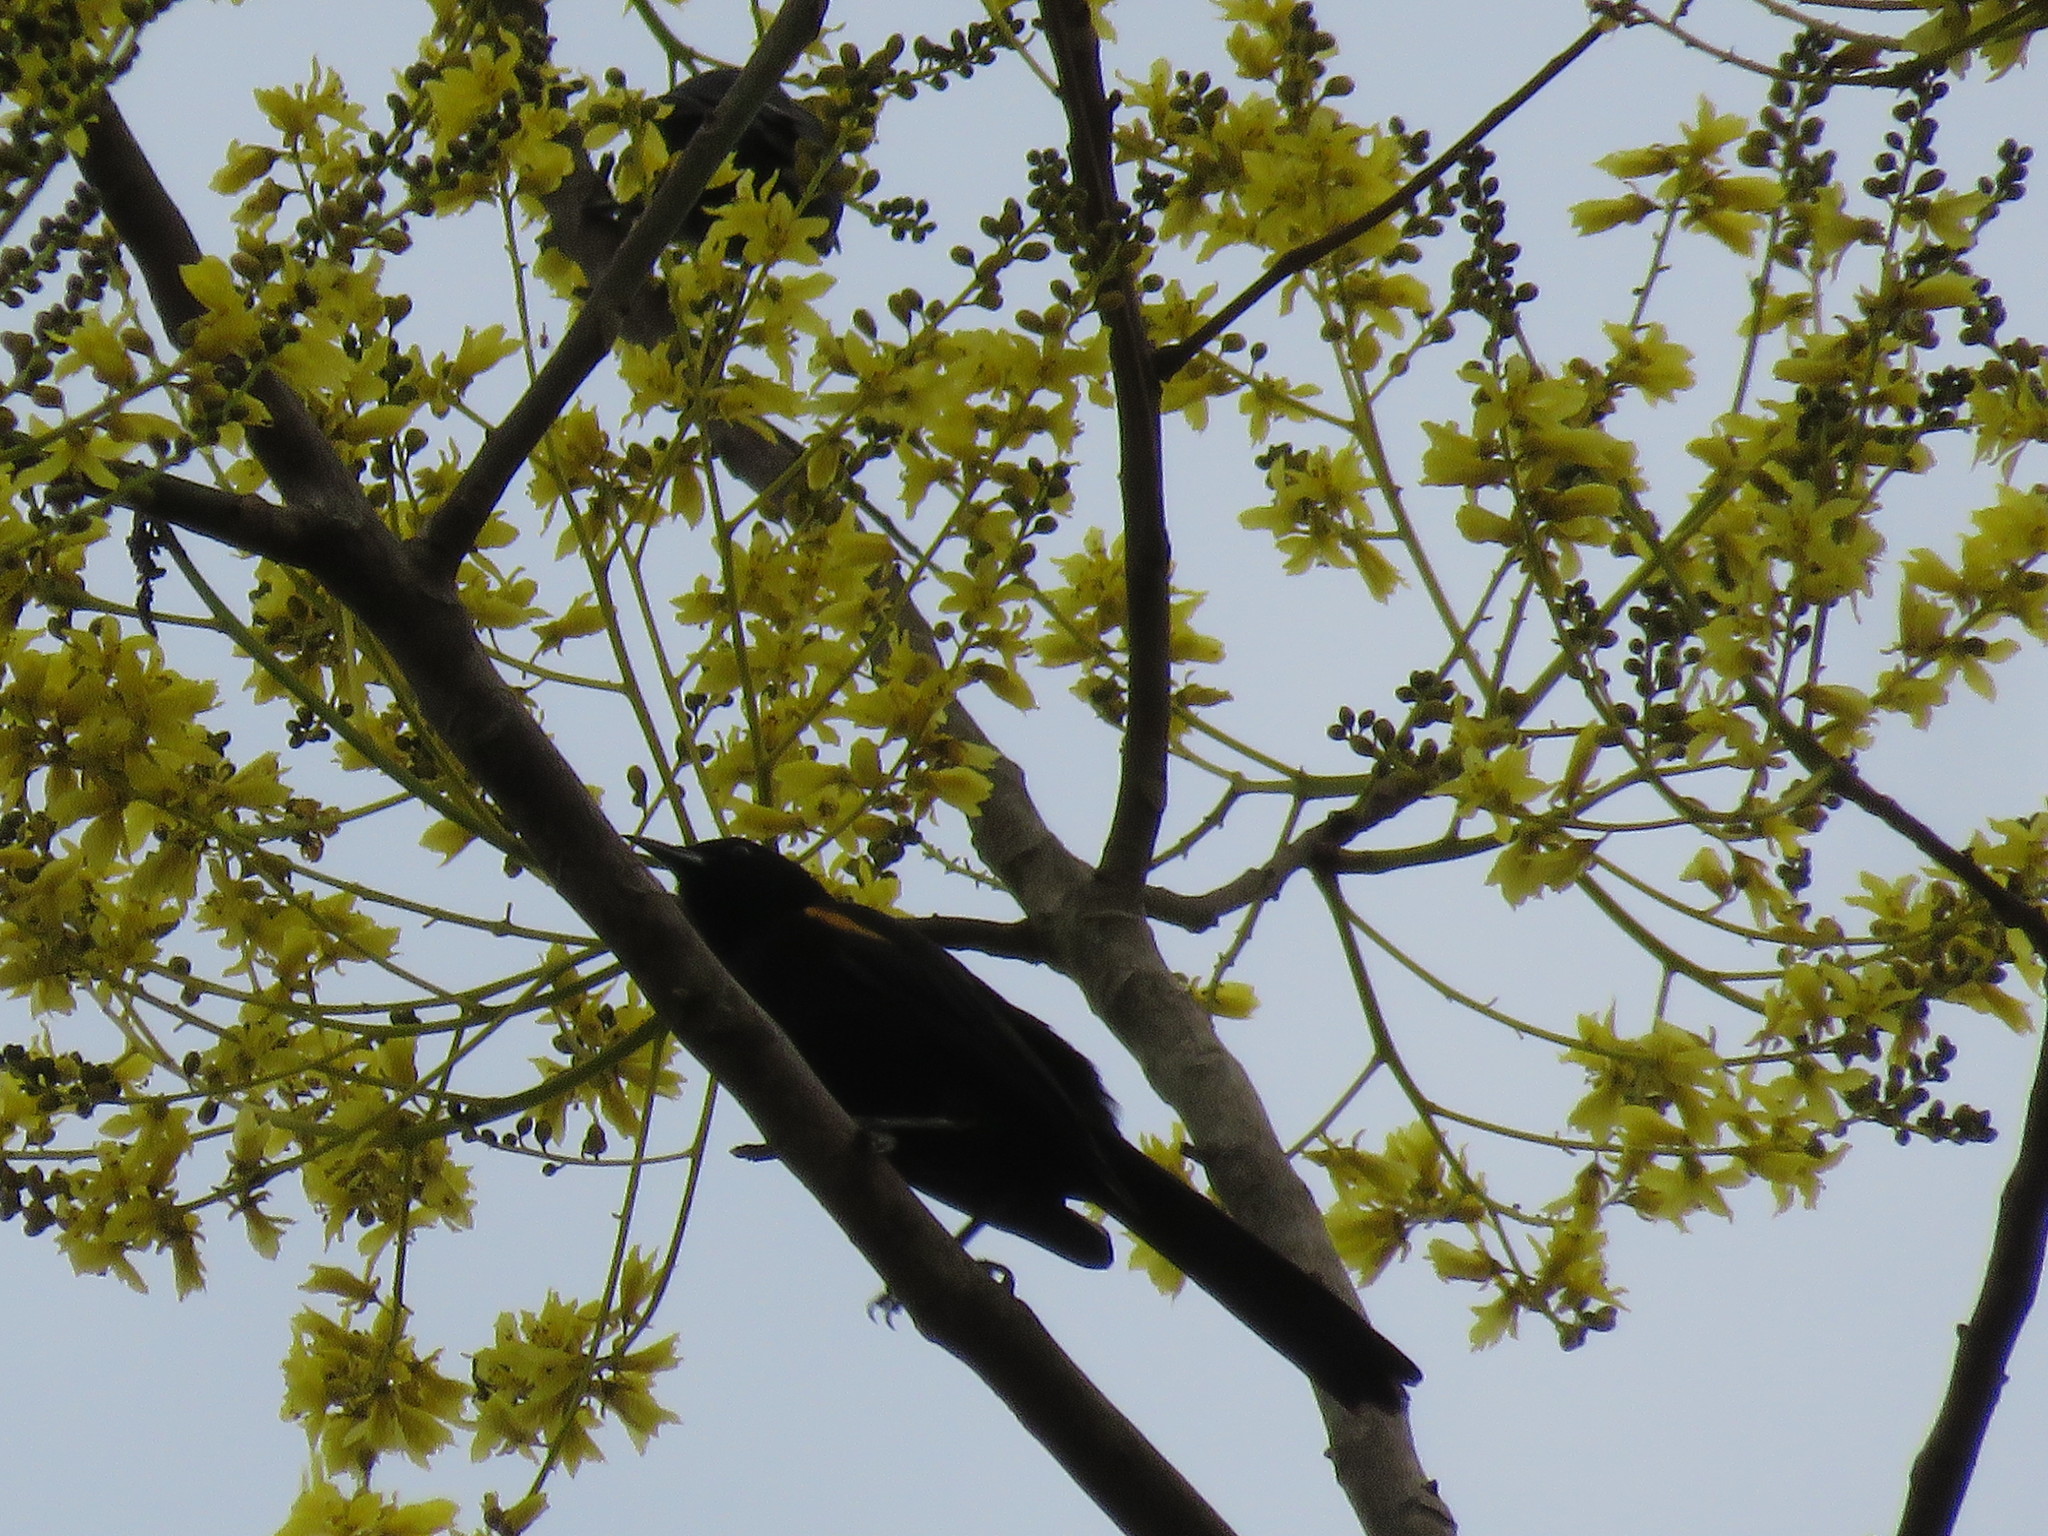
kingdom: Animalia
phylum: Chordata
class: Aves
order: Passeriformes
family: Icteridae
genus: Icterus
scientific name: Icterus cayanensis
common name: Epaulet oriole
